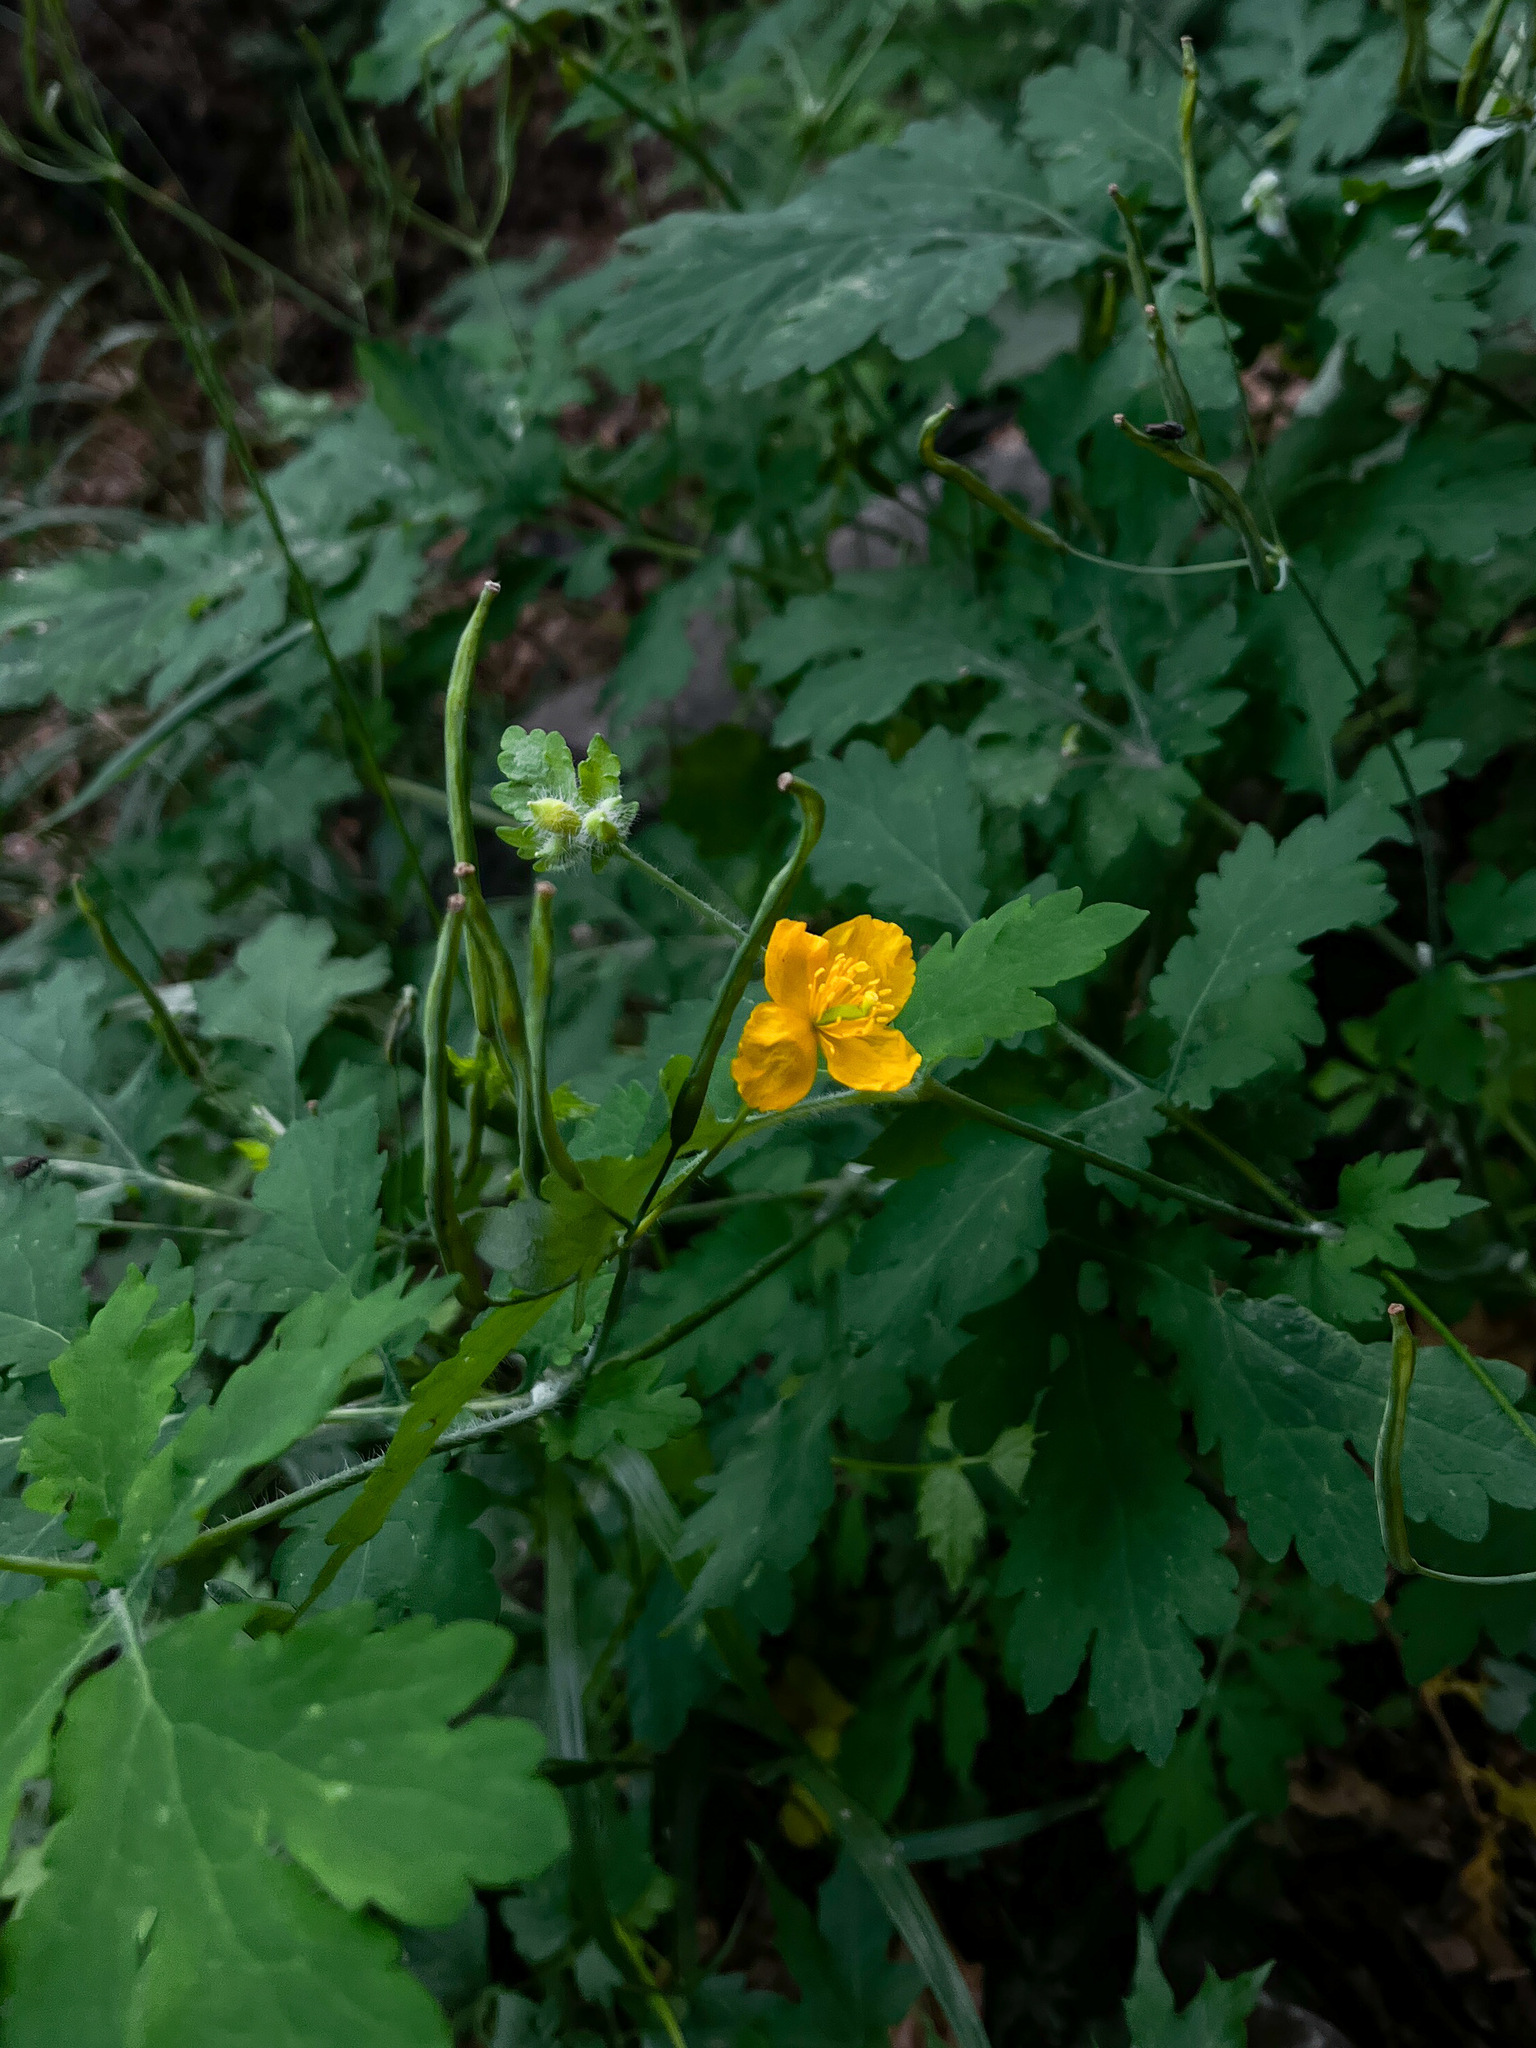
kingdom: Plantae
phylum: Tracheophyta
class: Magnoliopsida
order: Ranunculales
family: Papaveraceae
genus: Chelidonium
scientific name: Chelidonium majus
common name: Greater celandine
